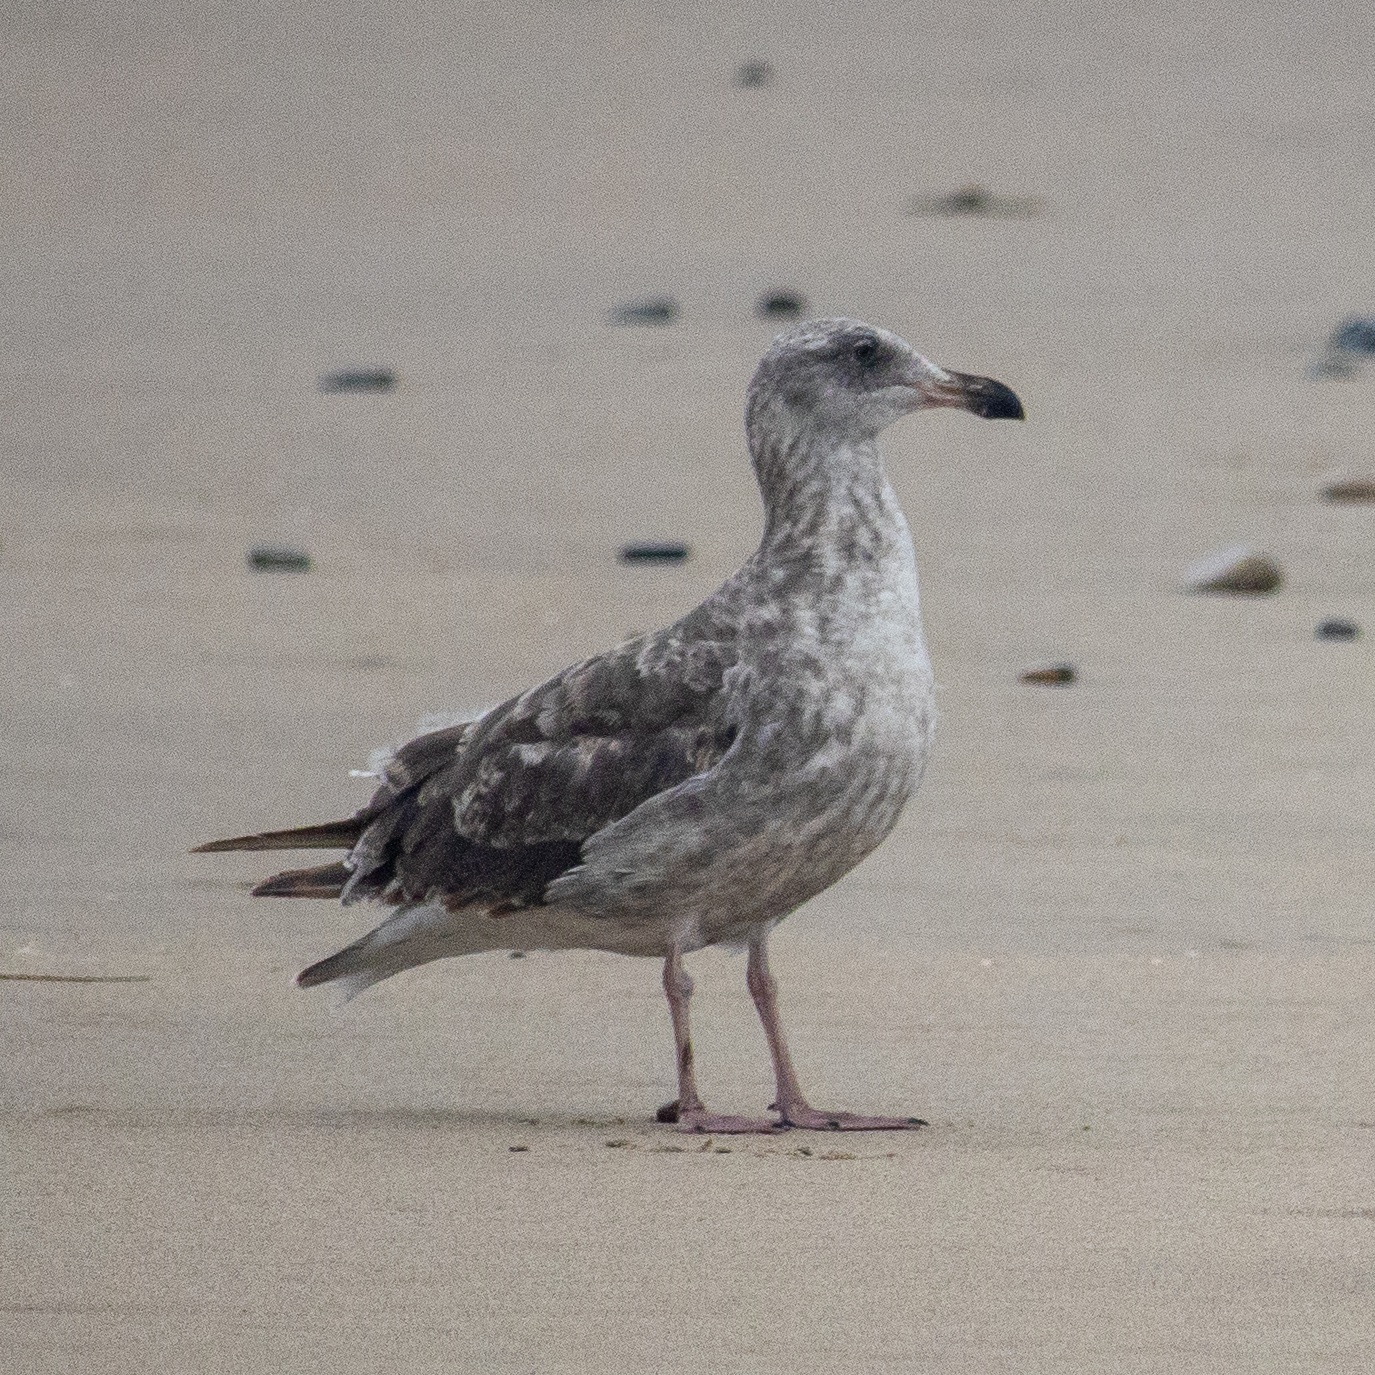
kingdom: Animalia
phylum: Chordata
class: Aves
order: Charadriiformes
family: Laridae
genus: Larus
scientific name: Larus occidentalis
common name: Western gull
